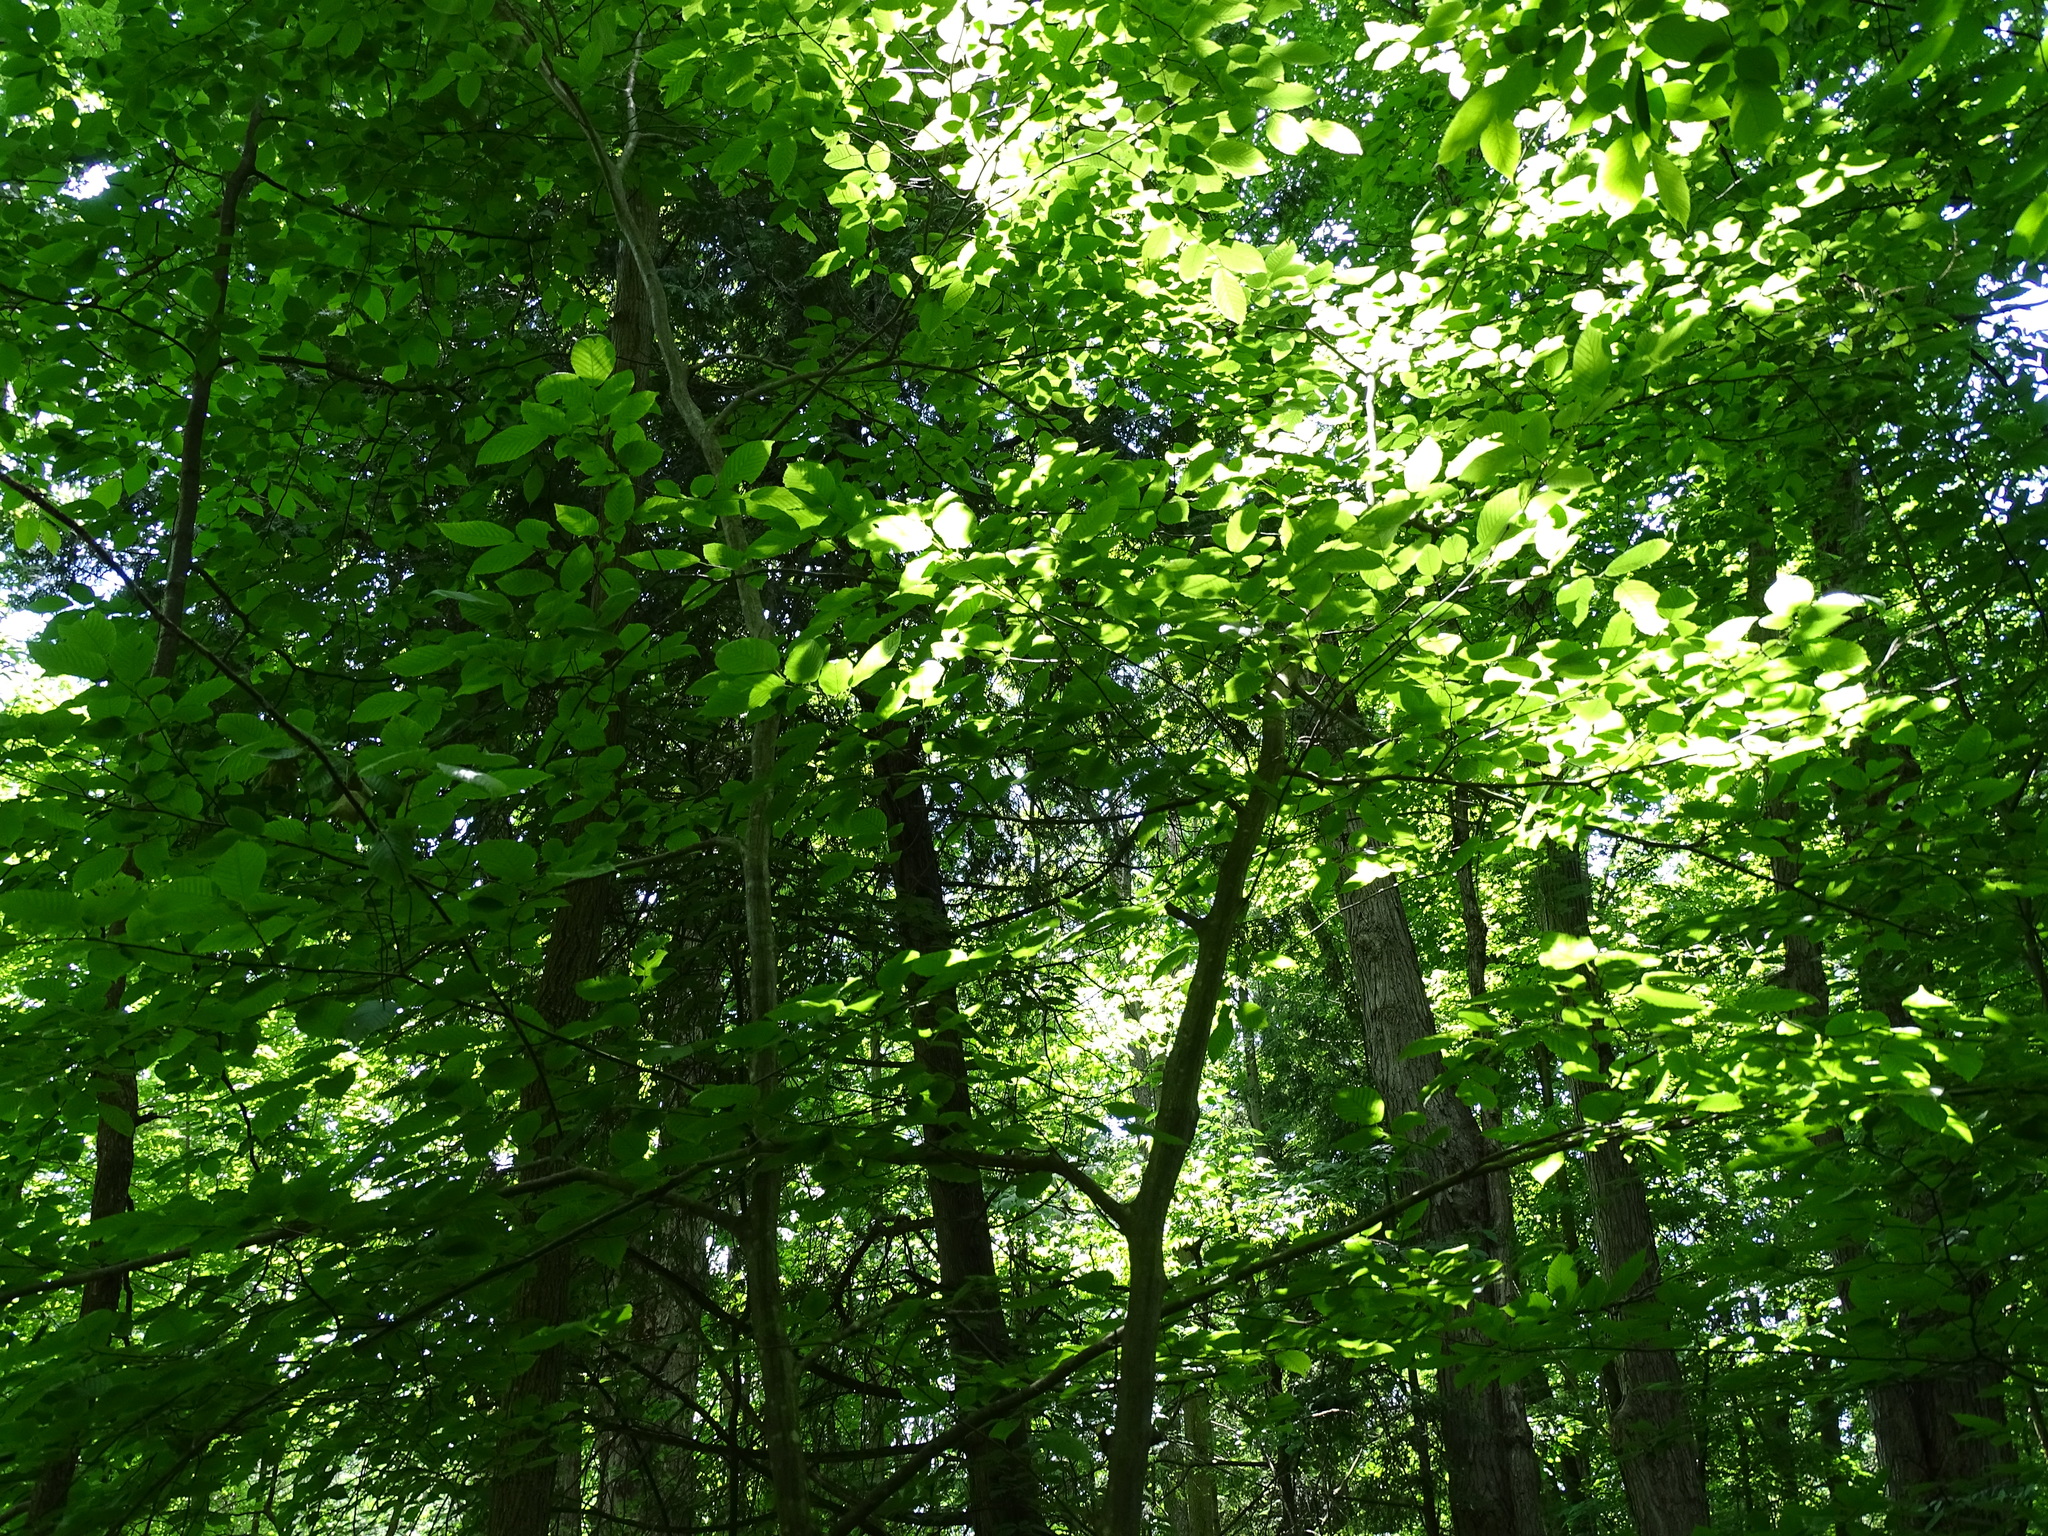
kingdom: Plantae
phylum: Tracheophyta
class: Magnoliopsida
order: Fagales
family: Betulaceae
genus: Carpinus
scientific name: Carpinus caroliniana
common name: American hornbeam
